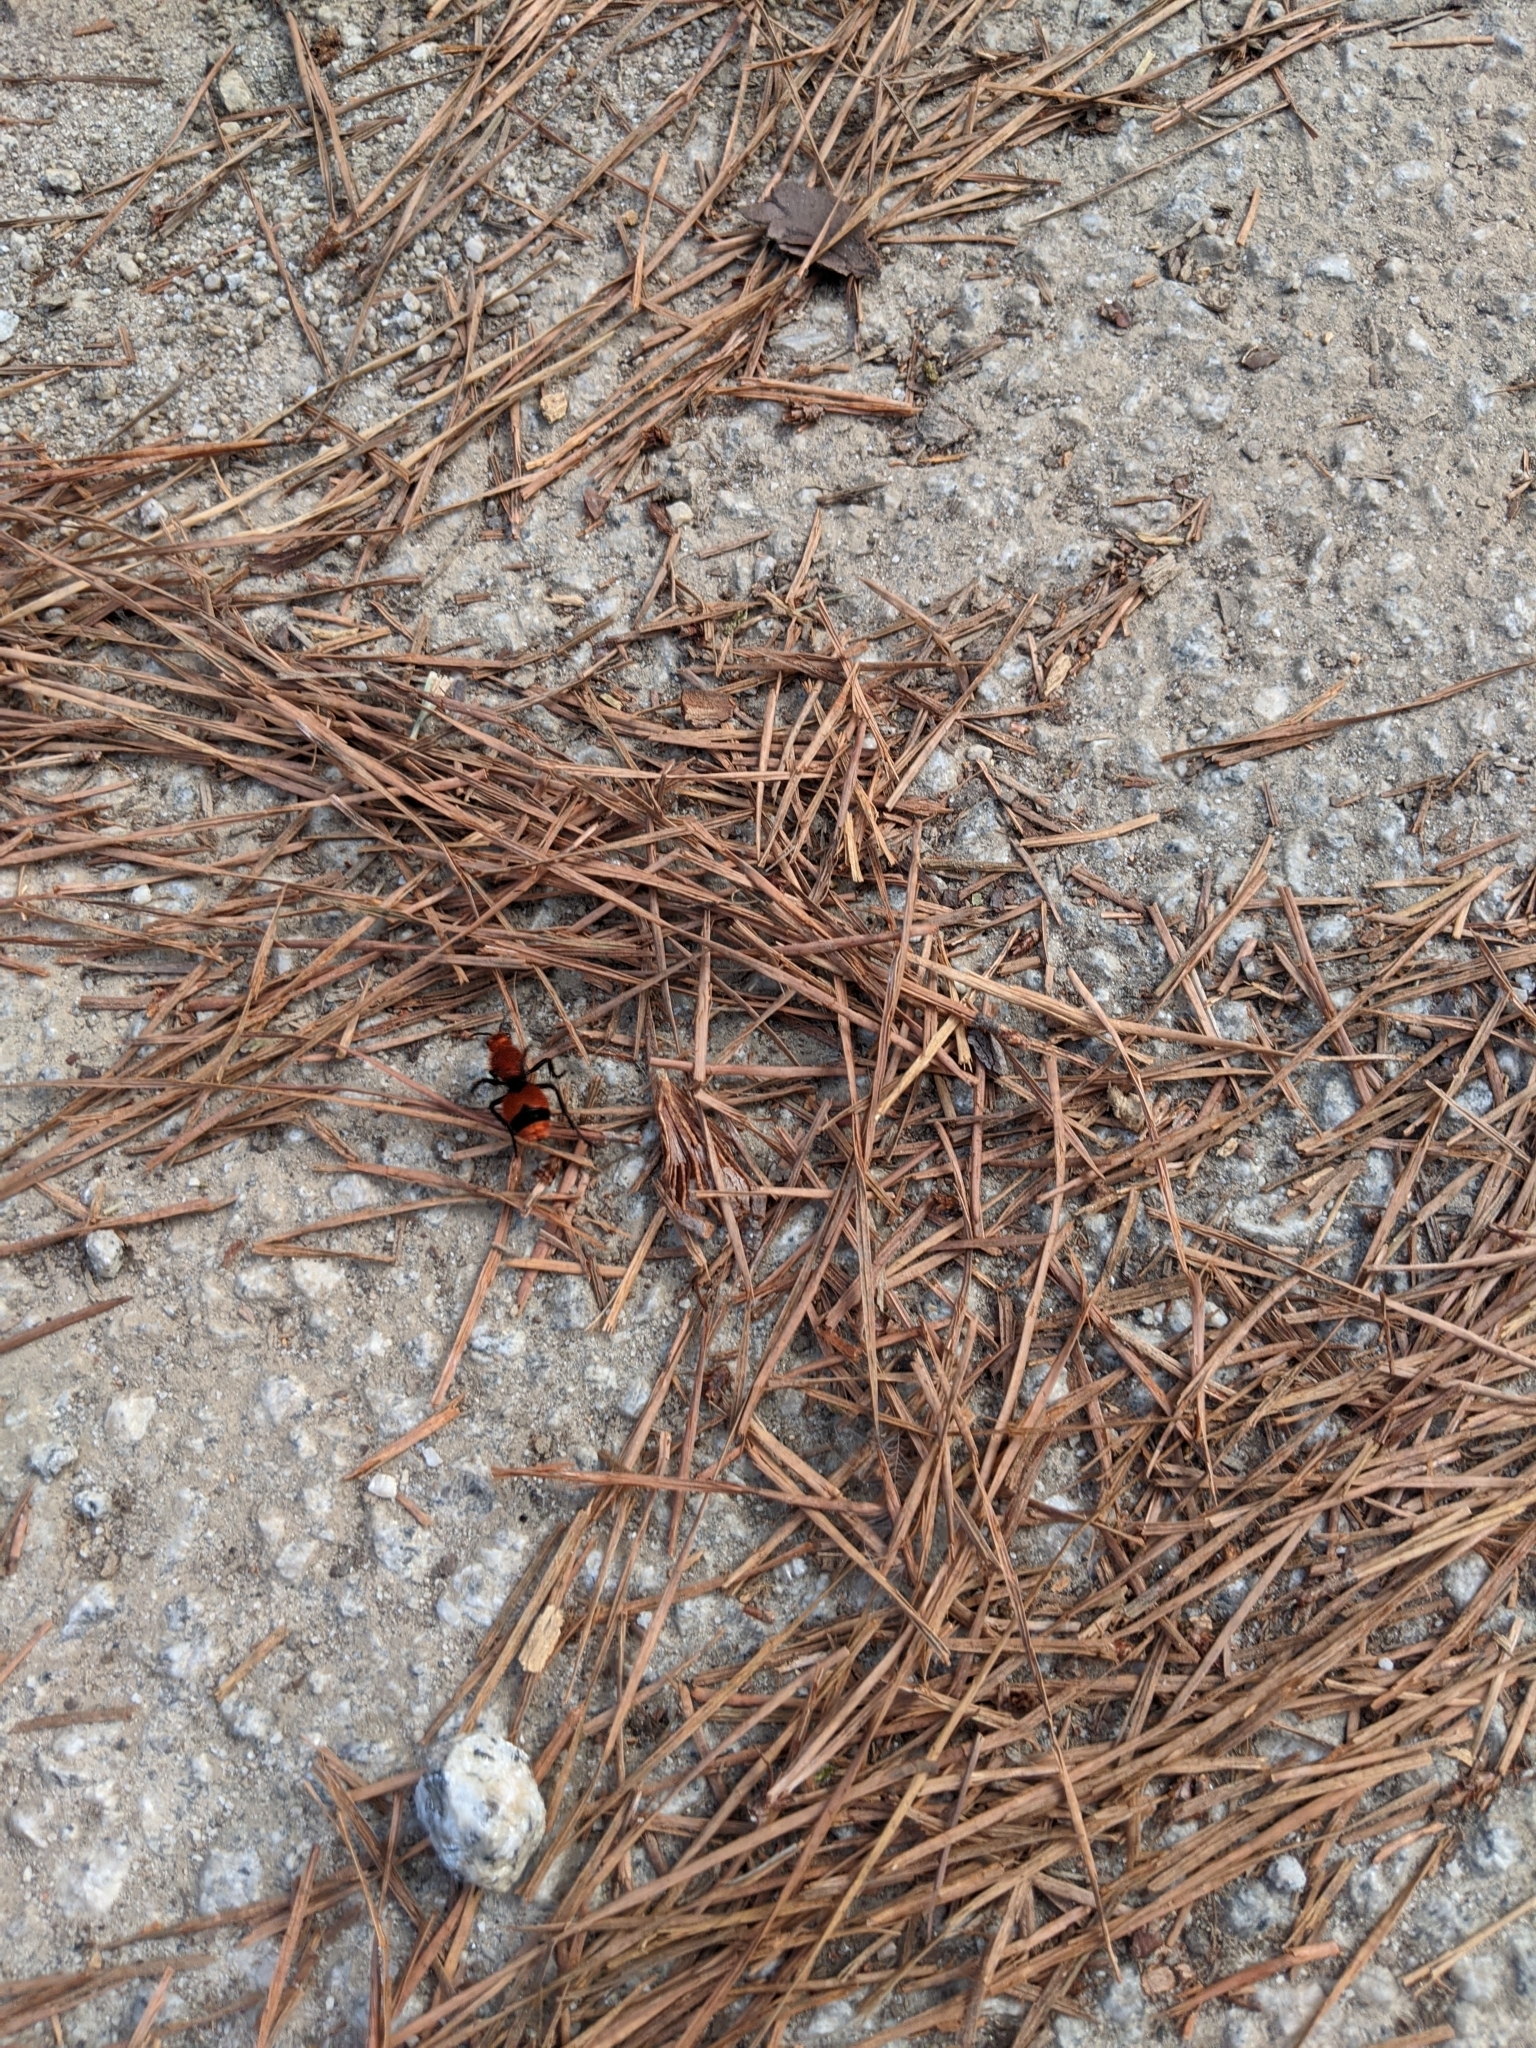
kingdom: Animalia
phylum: Arthropoda
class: Insecta
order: Hymenoptera
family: Mutillidae
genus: Dasymutilla
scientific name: Dasymutilla occidentalis
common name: Common eastern velvet ant
